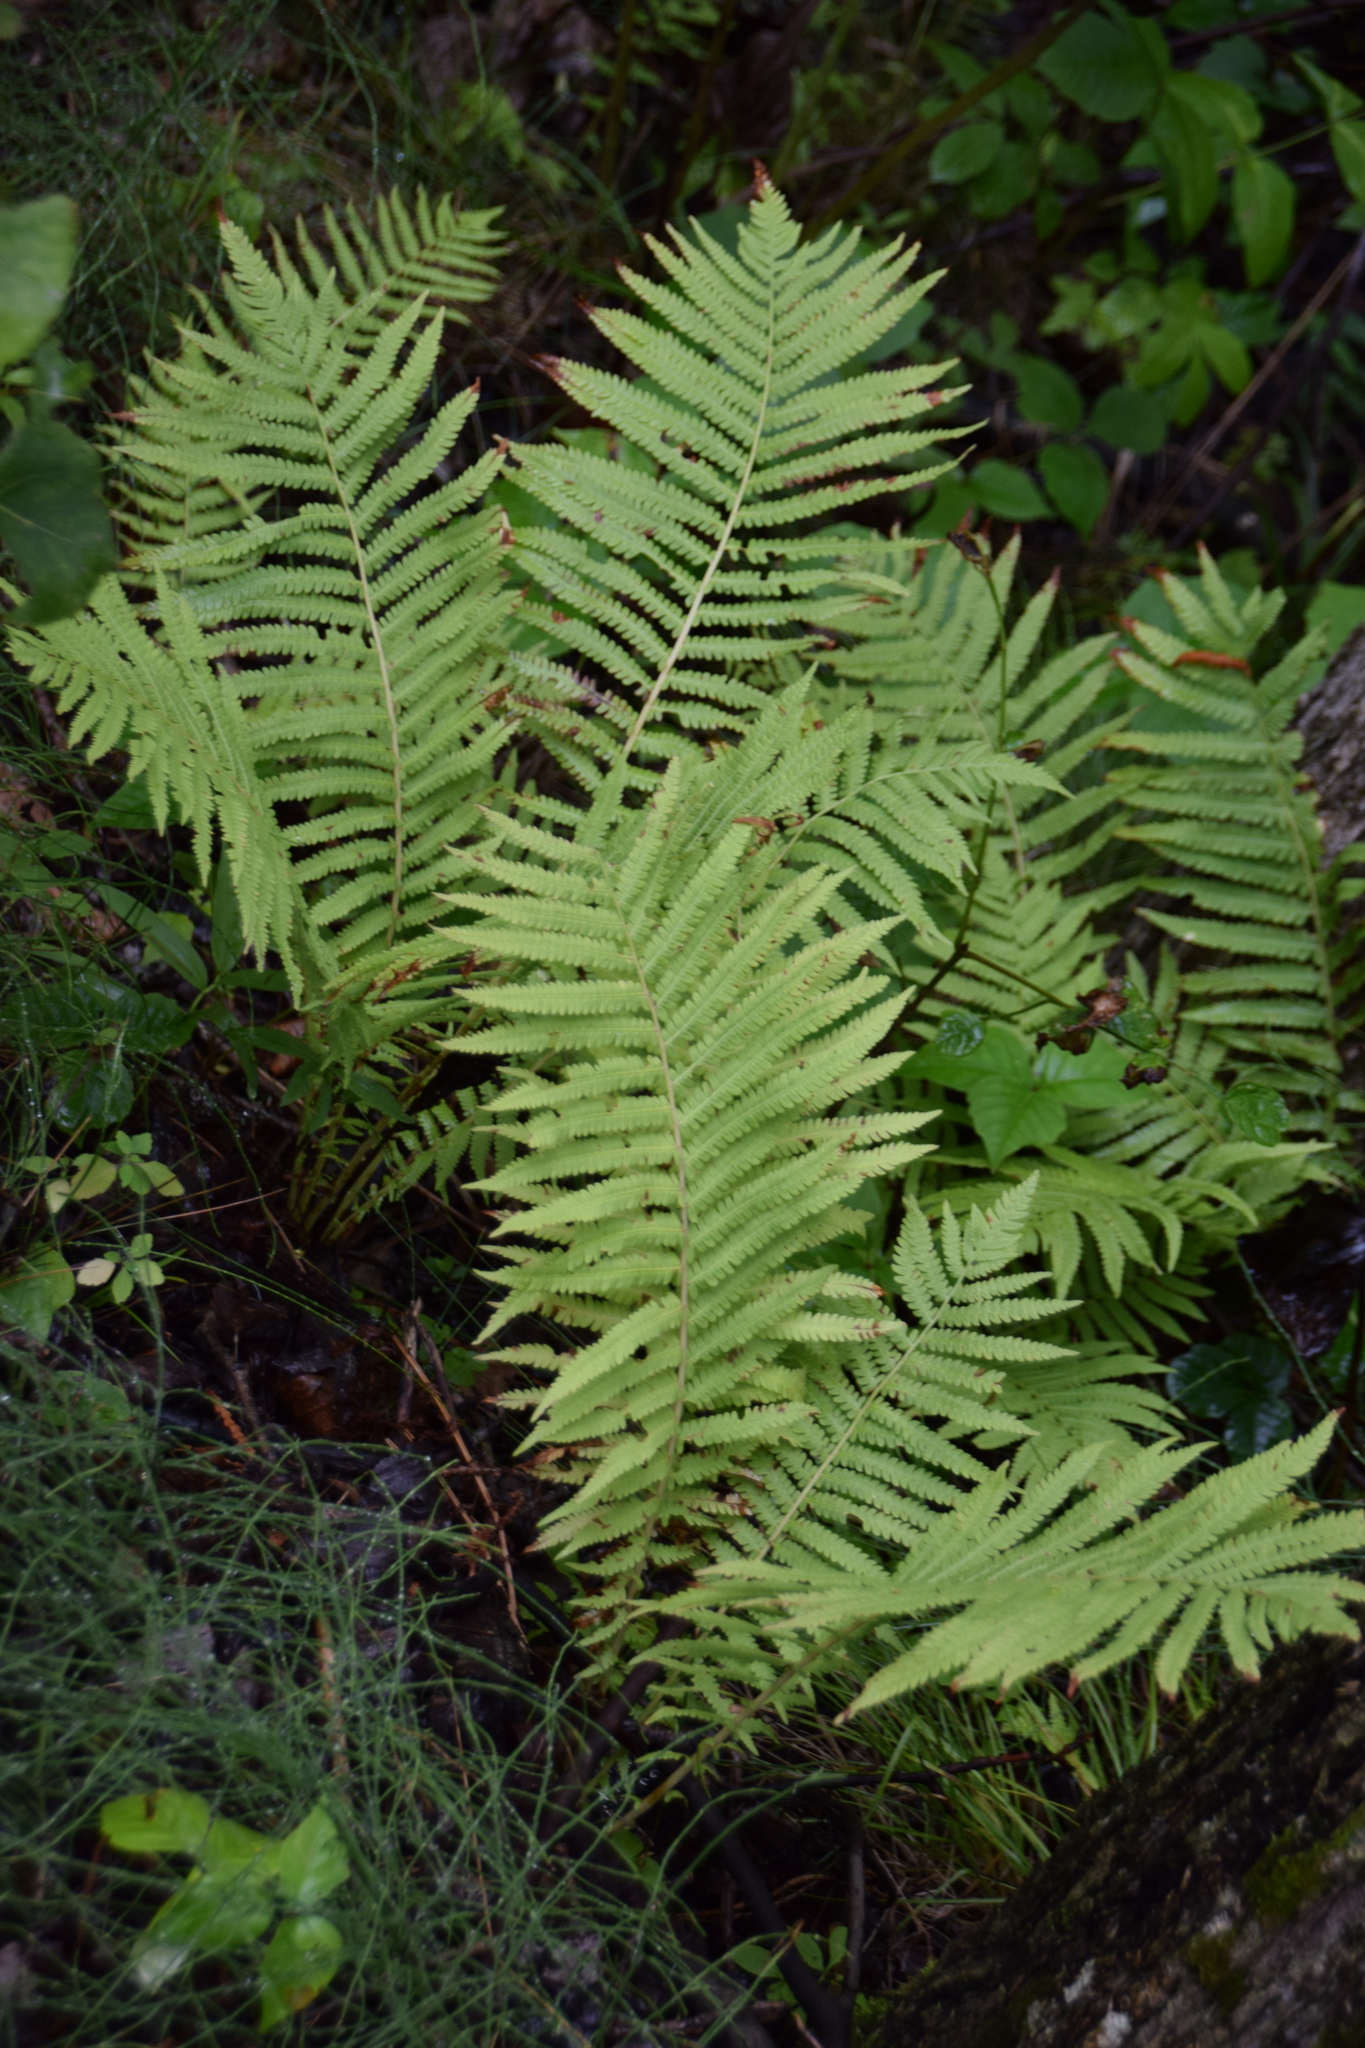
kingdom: Plantae
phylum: Tracheophyta
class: Polypodiopsida
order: Polypodiales
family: Onocleaceae
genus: Matteuccia
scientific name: Matteuccia struthiopteris
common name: Ostrich fern
